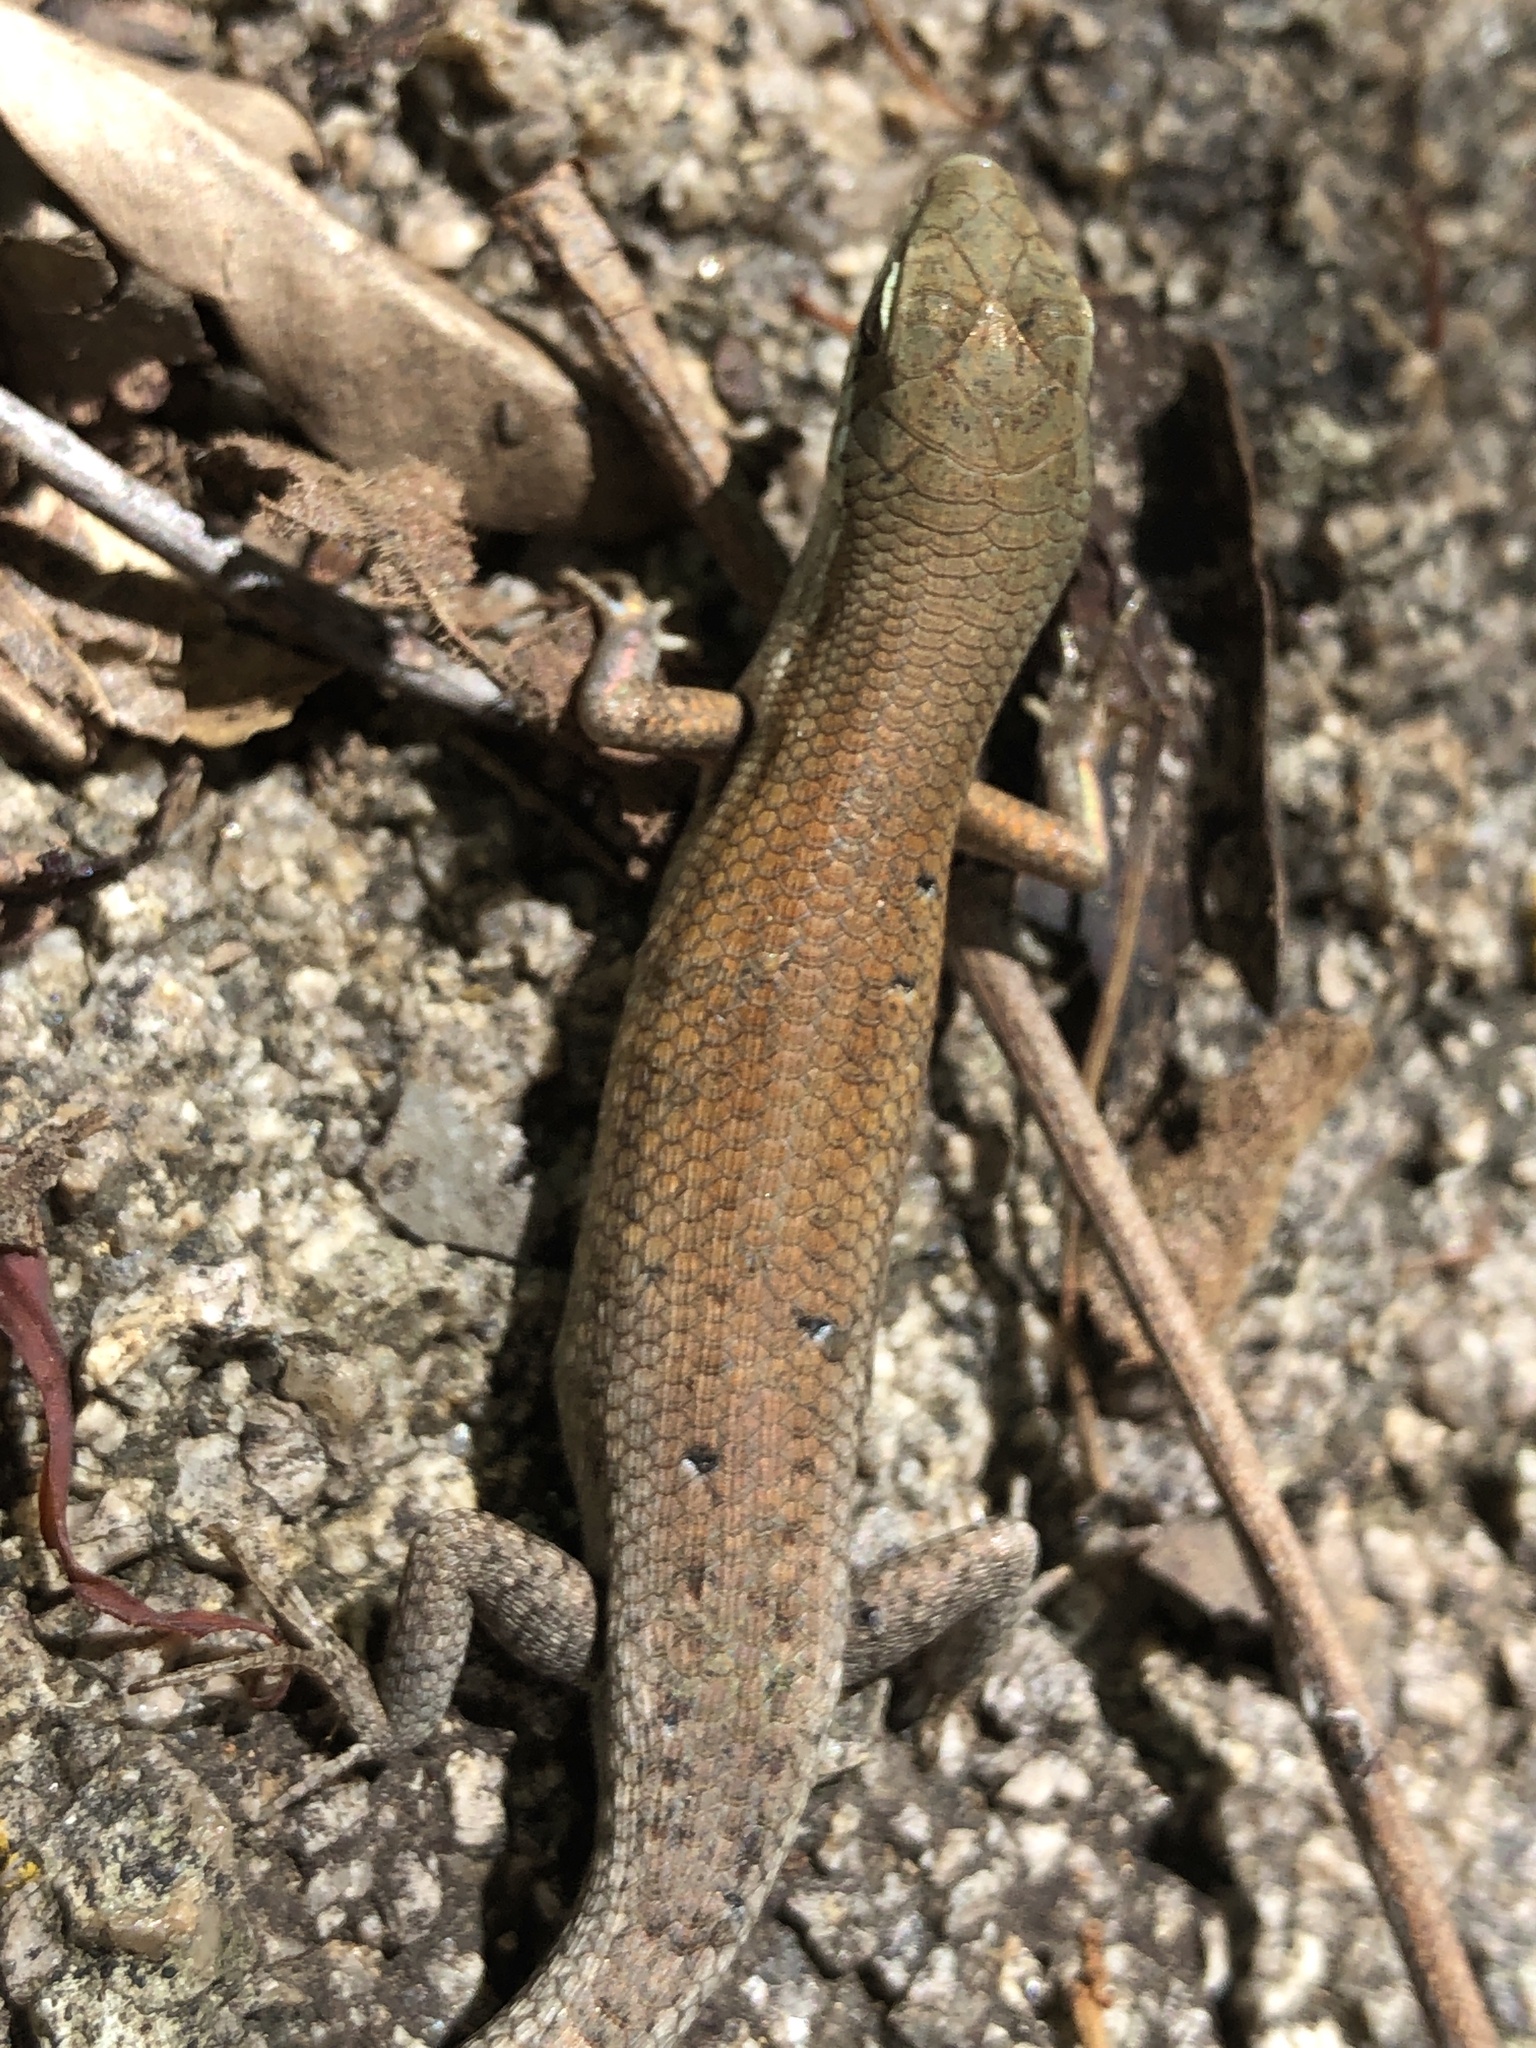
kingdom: Animalia
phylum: Chordata
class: Squamata
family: Scincidae
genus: Carlia
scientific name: Carlia rubigo
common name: Orange-flanked rainbow-skink
